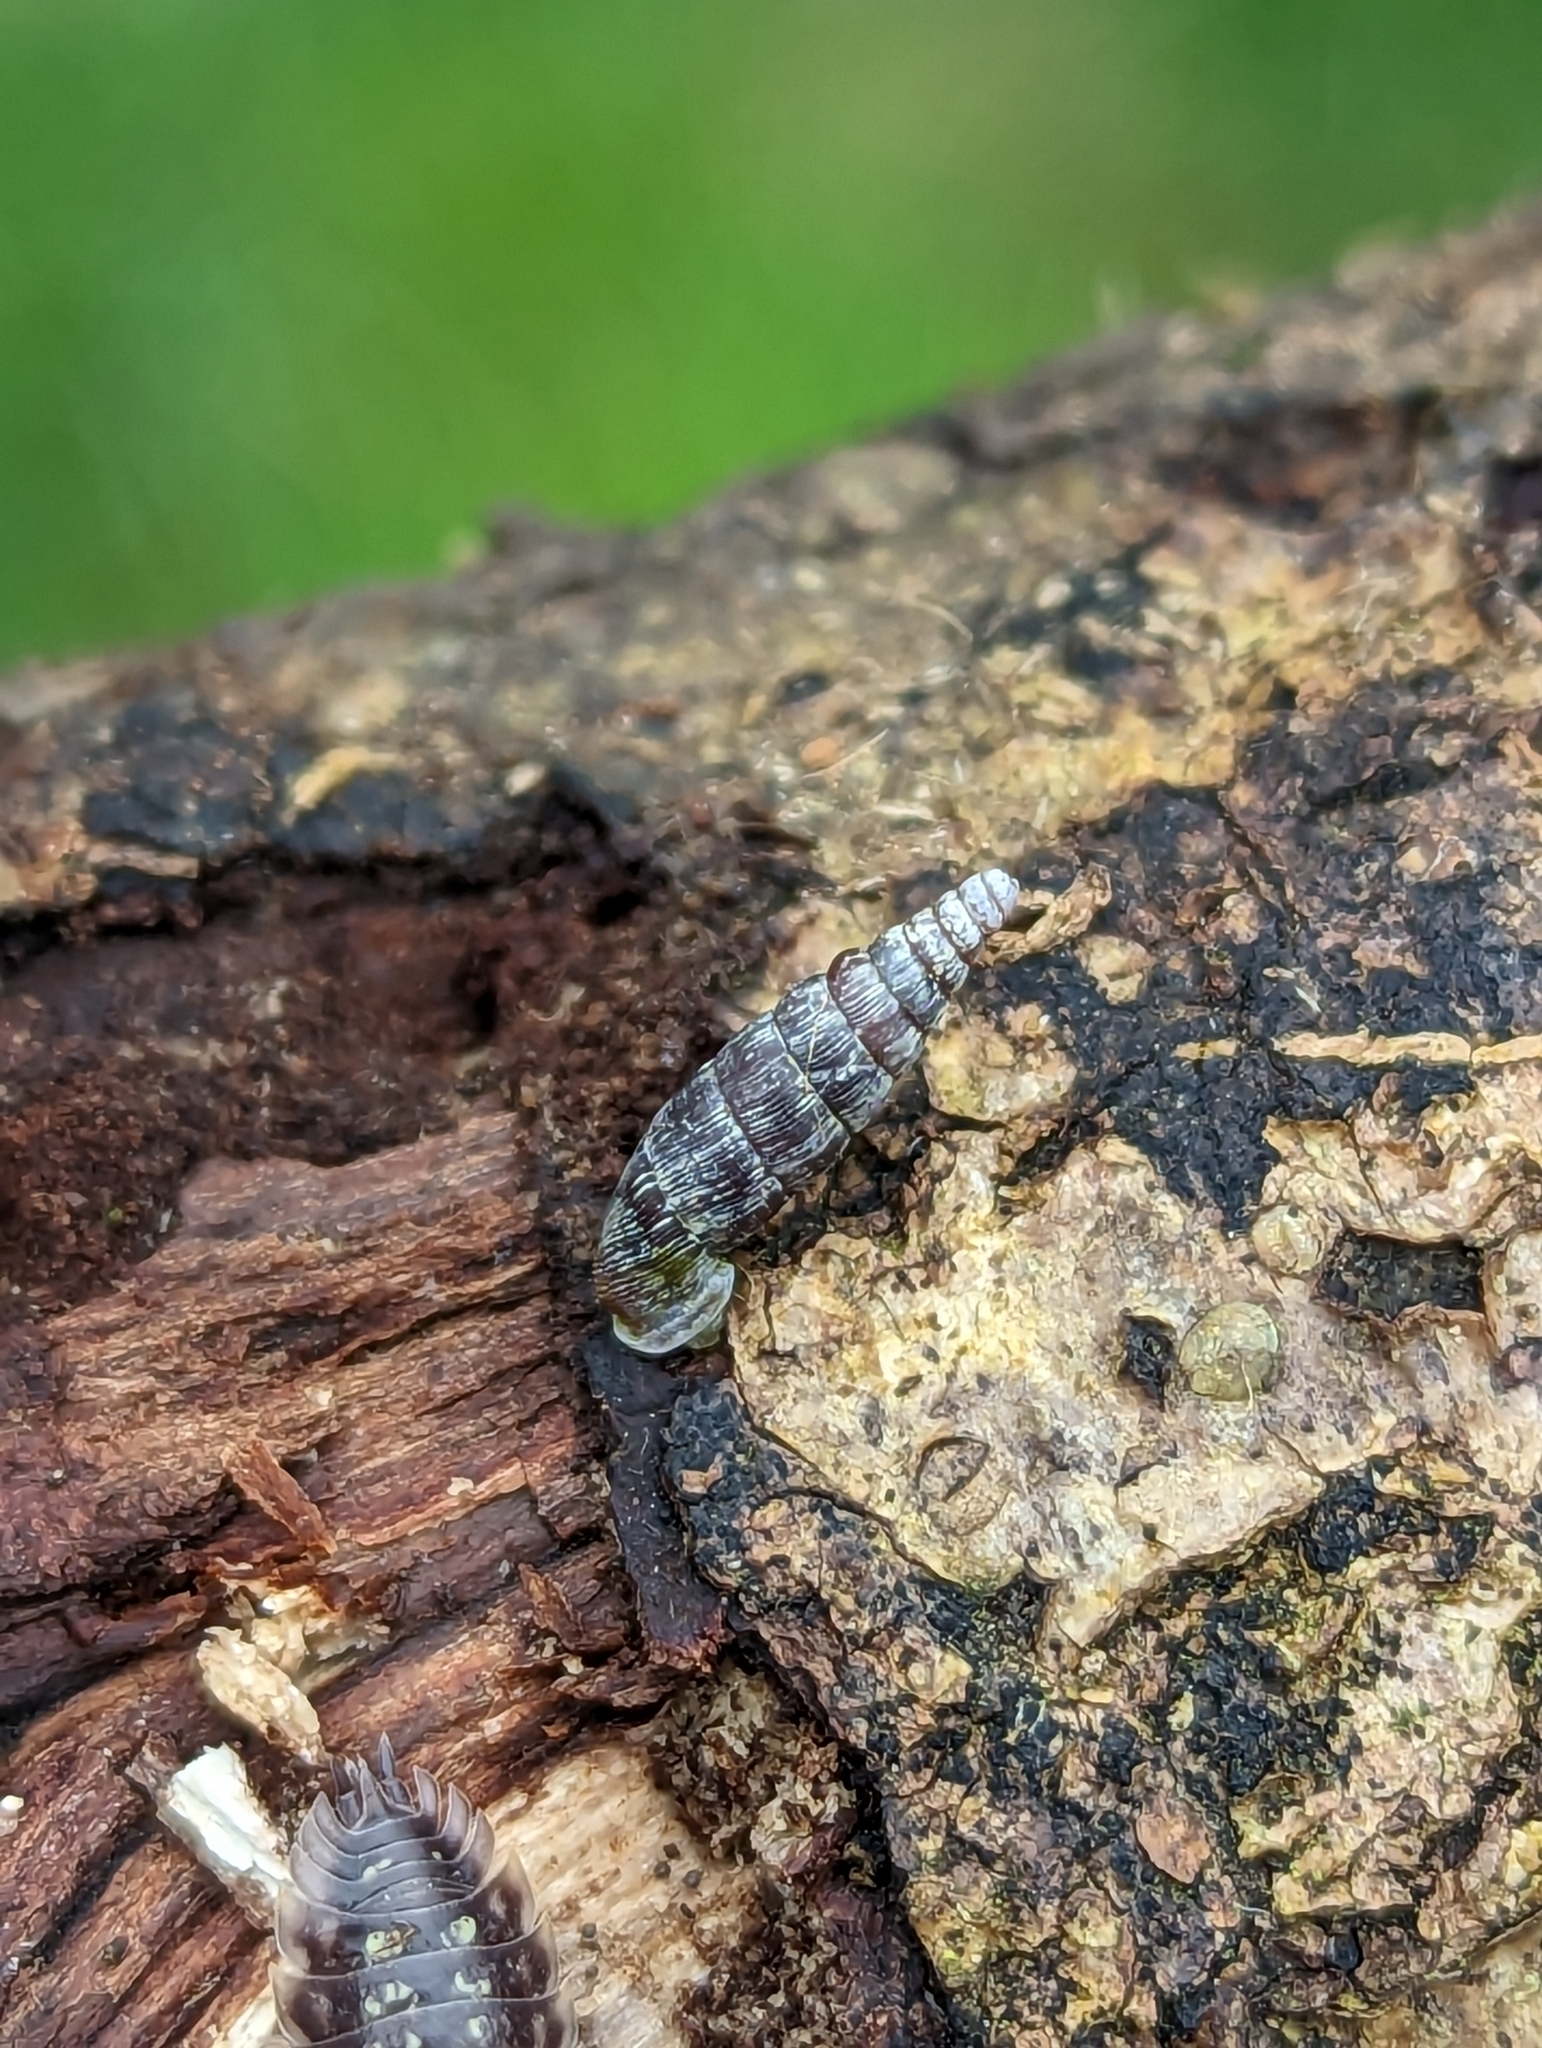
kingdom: Animalia
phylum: Mollusca
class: Gastropoda
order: Stylommatophora
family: Clausiliidae
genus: Clausilia
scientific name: Clausilia bidentata
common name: Two-toothed door snail
